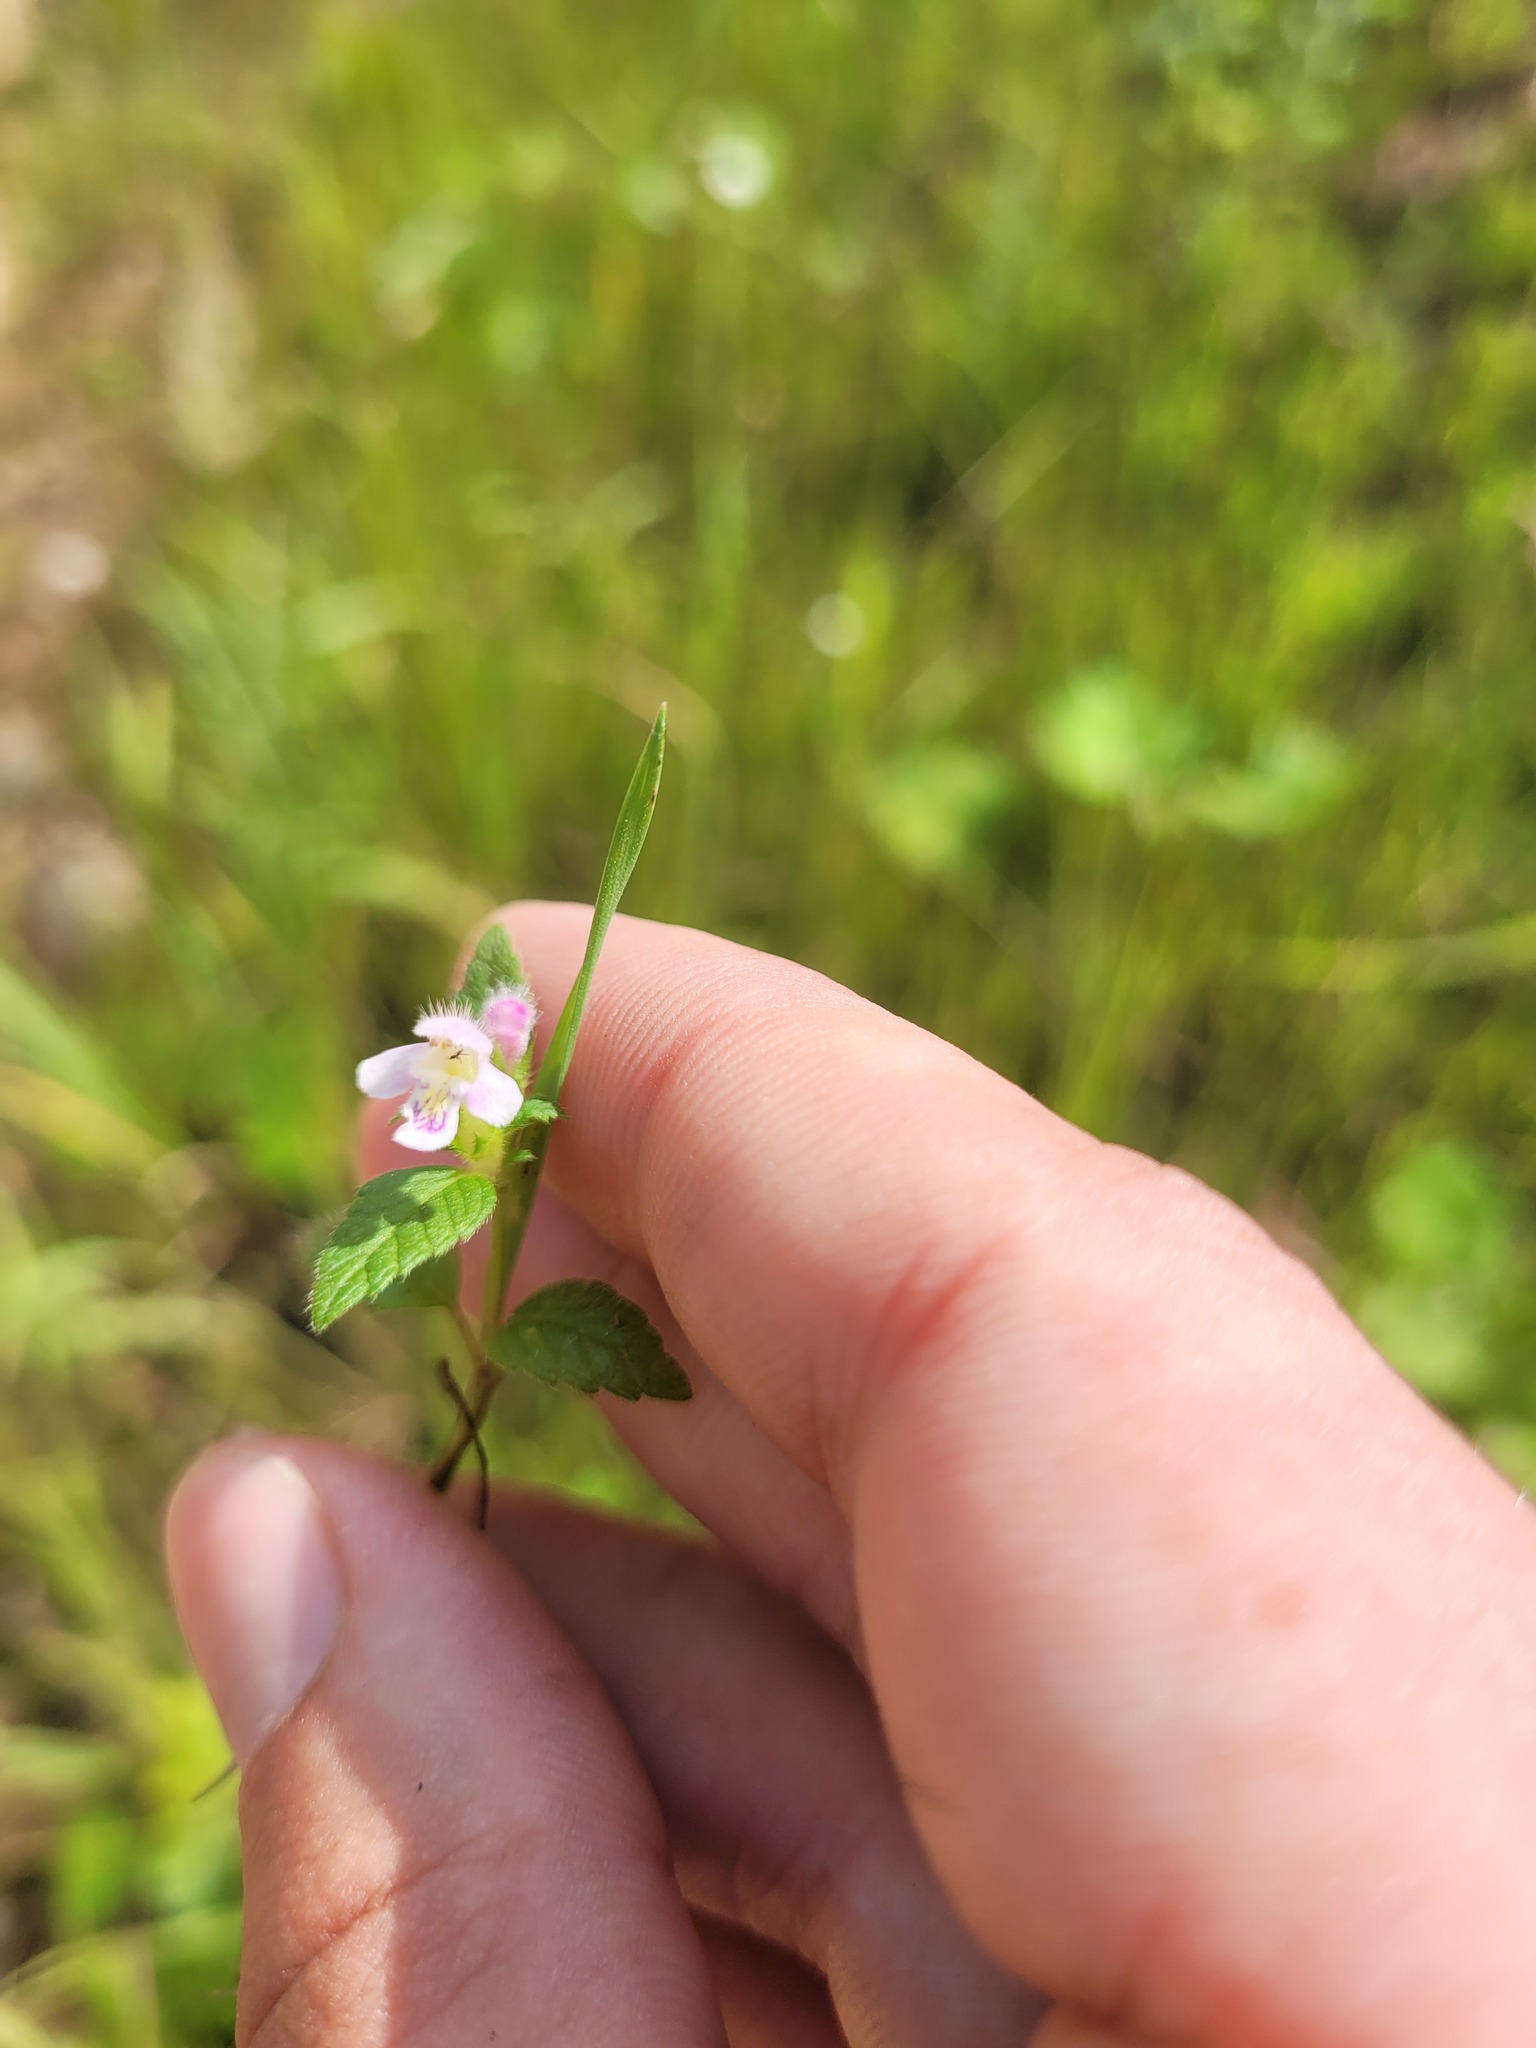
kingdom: Plantae
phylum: Tracheophyta
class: Magnoliopsida
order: Lamiales
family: Lamiaceae
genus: Galeopsis
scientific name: Galeopsis tetrahit
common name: Common hemp-nettle
